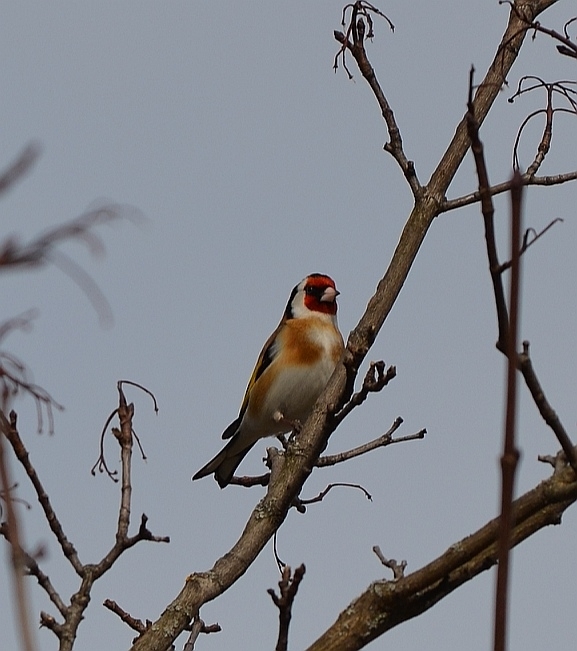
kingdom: Animalia
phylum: Chordata
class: Aves
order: Passeriformes
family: Fringillidae
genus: Carduelis
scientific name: Carduelis carduelis
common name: European goldfinch
